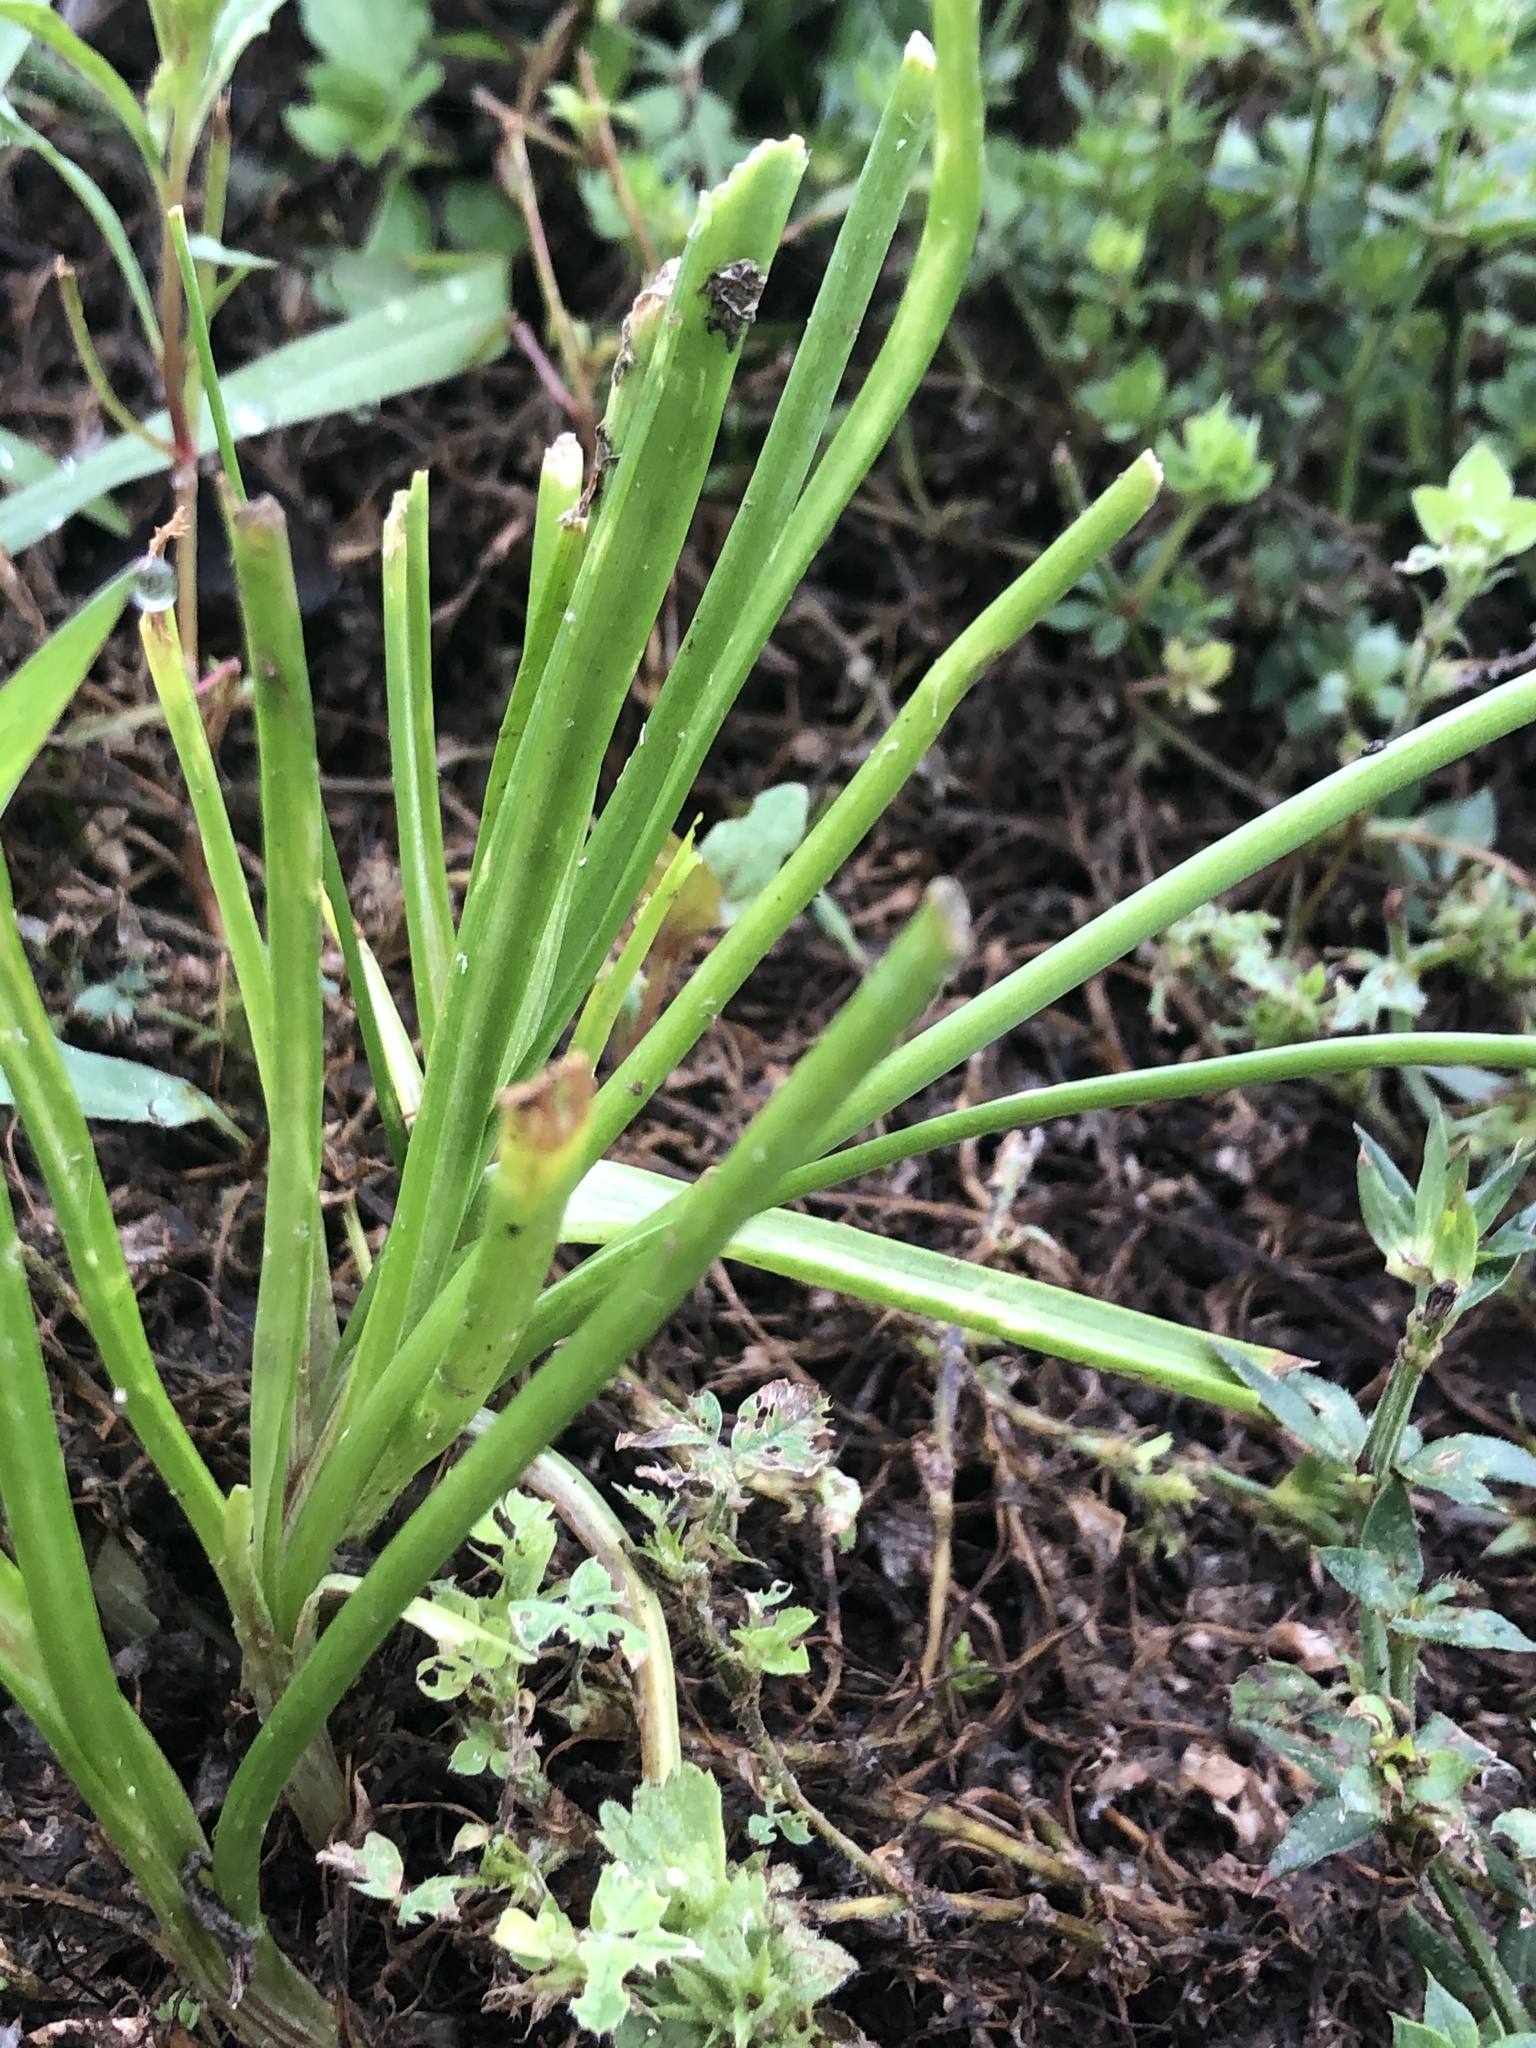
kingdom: Plantae
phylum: Tracheophyta
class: Liliopsida
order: Asparagales
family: Amaryllidaceae
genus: Allium
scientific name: Allium drummondii
